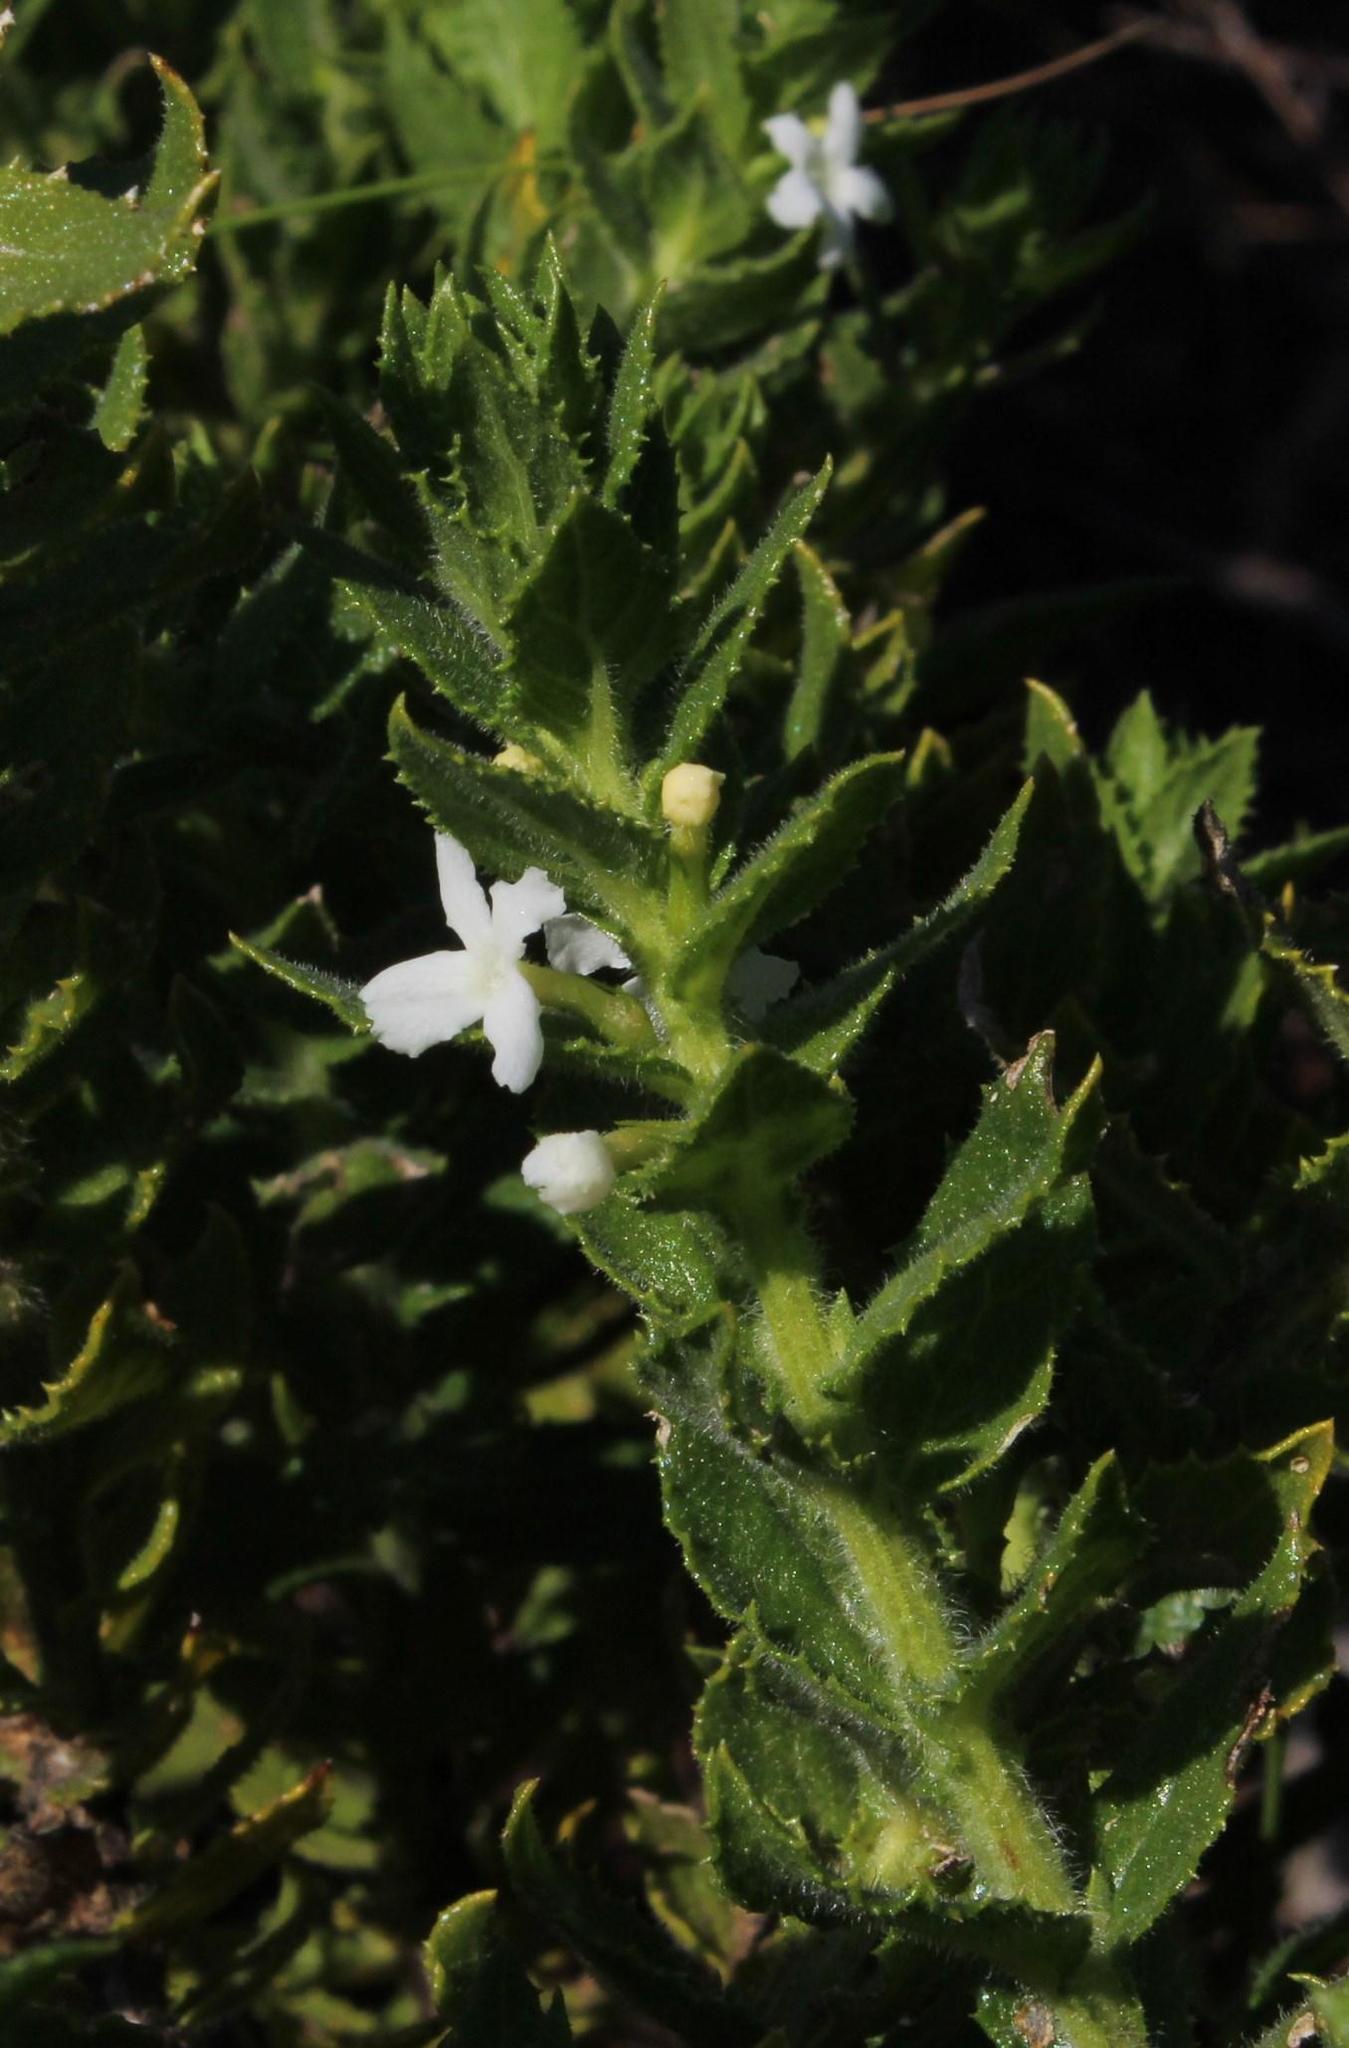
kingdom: Plantae
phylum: Tracheophyta
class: Magnoliopsida
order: Lamiales
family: Scrophulariaceae
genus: Oftia
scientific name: Oftia africana
